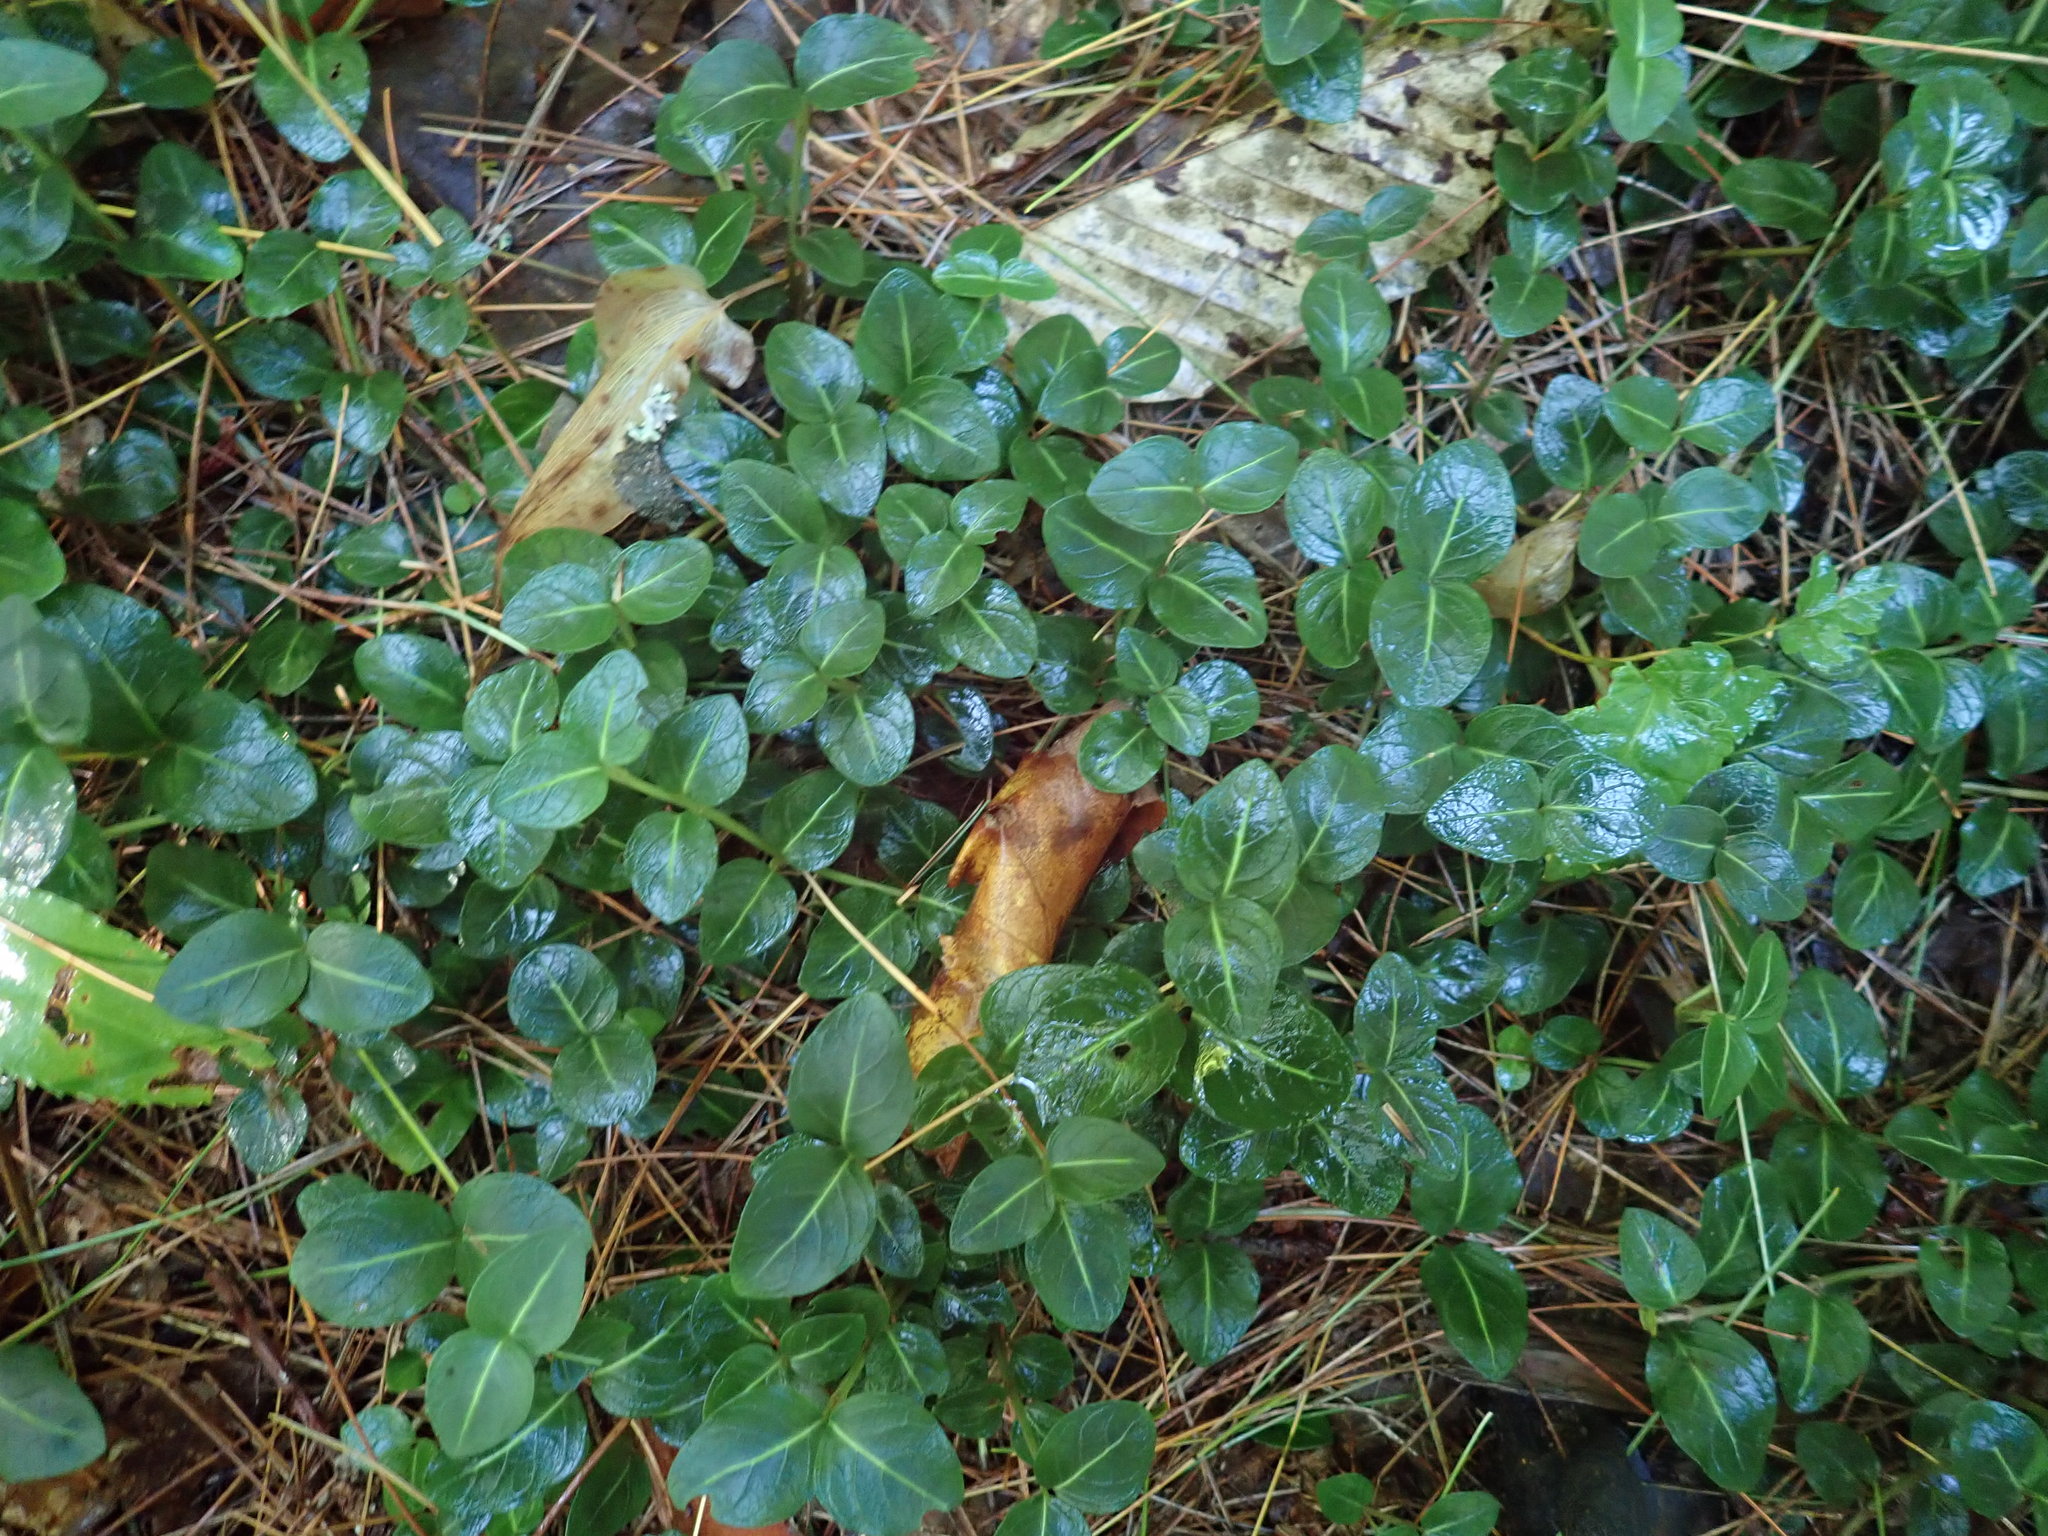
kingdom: Plantae
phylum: Tracheophyta
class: Magnoliopsida
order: Gentianales
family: Rubiaceae
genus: Mitchella
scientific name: Mitchella repens
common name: Partridge-berry
